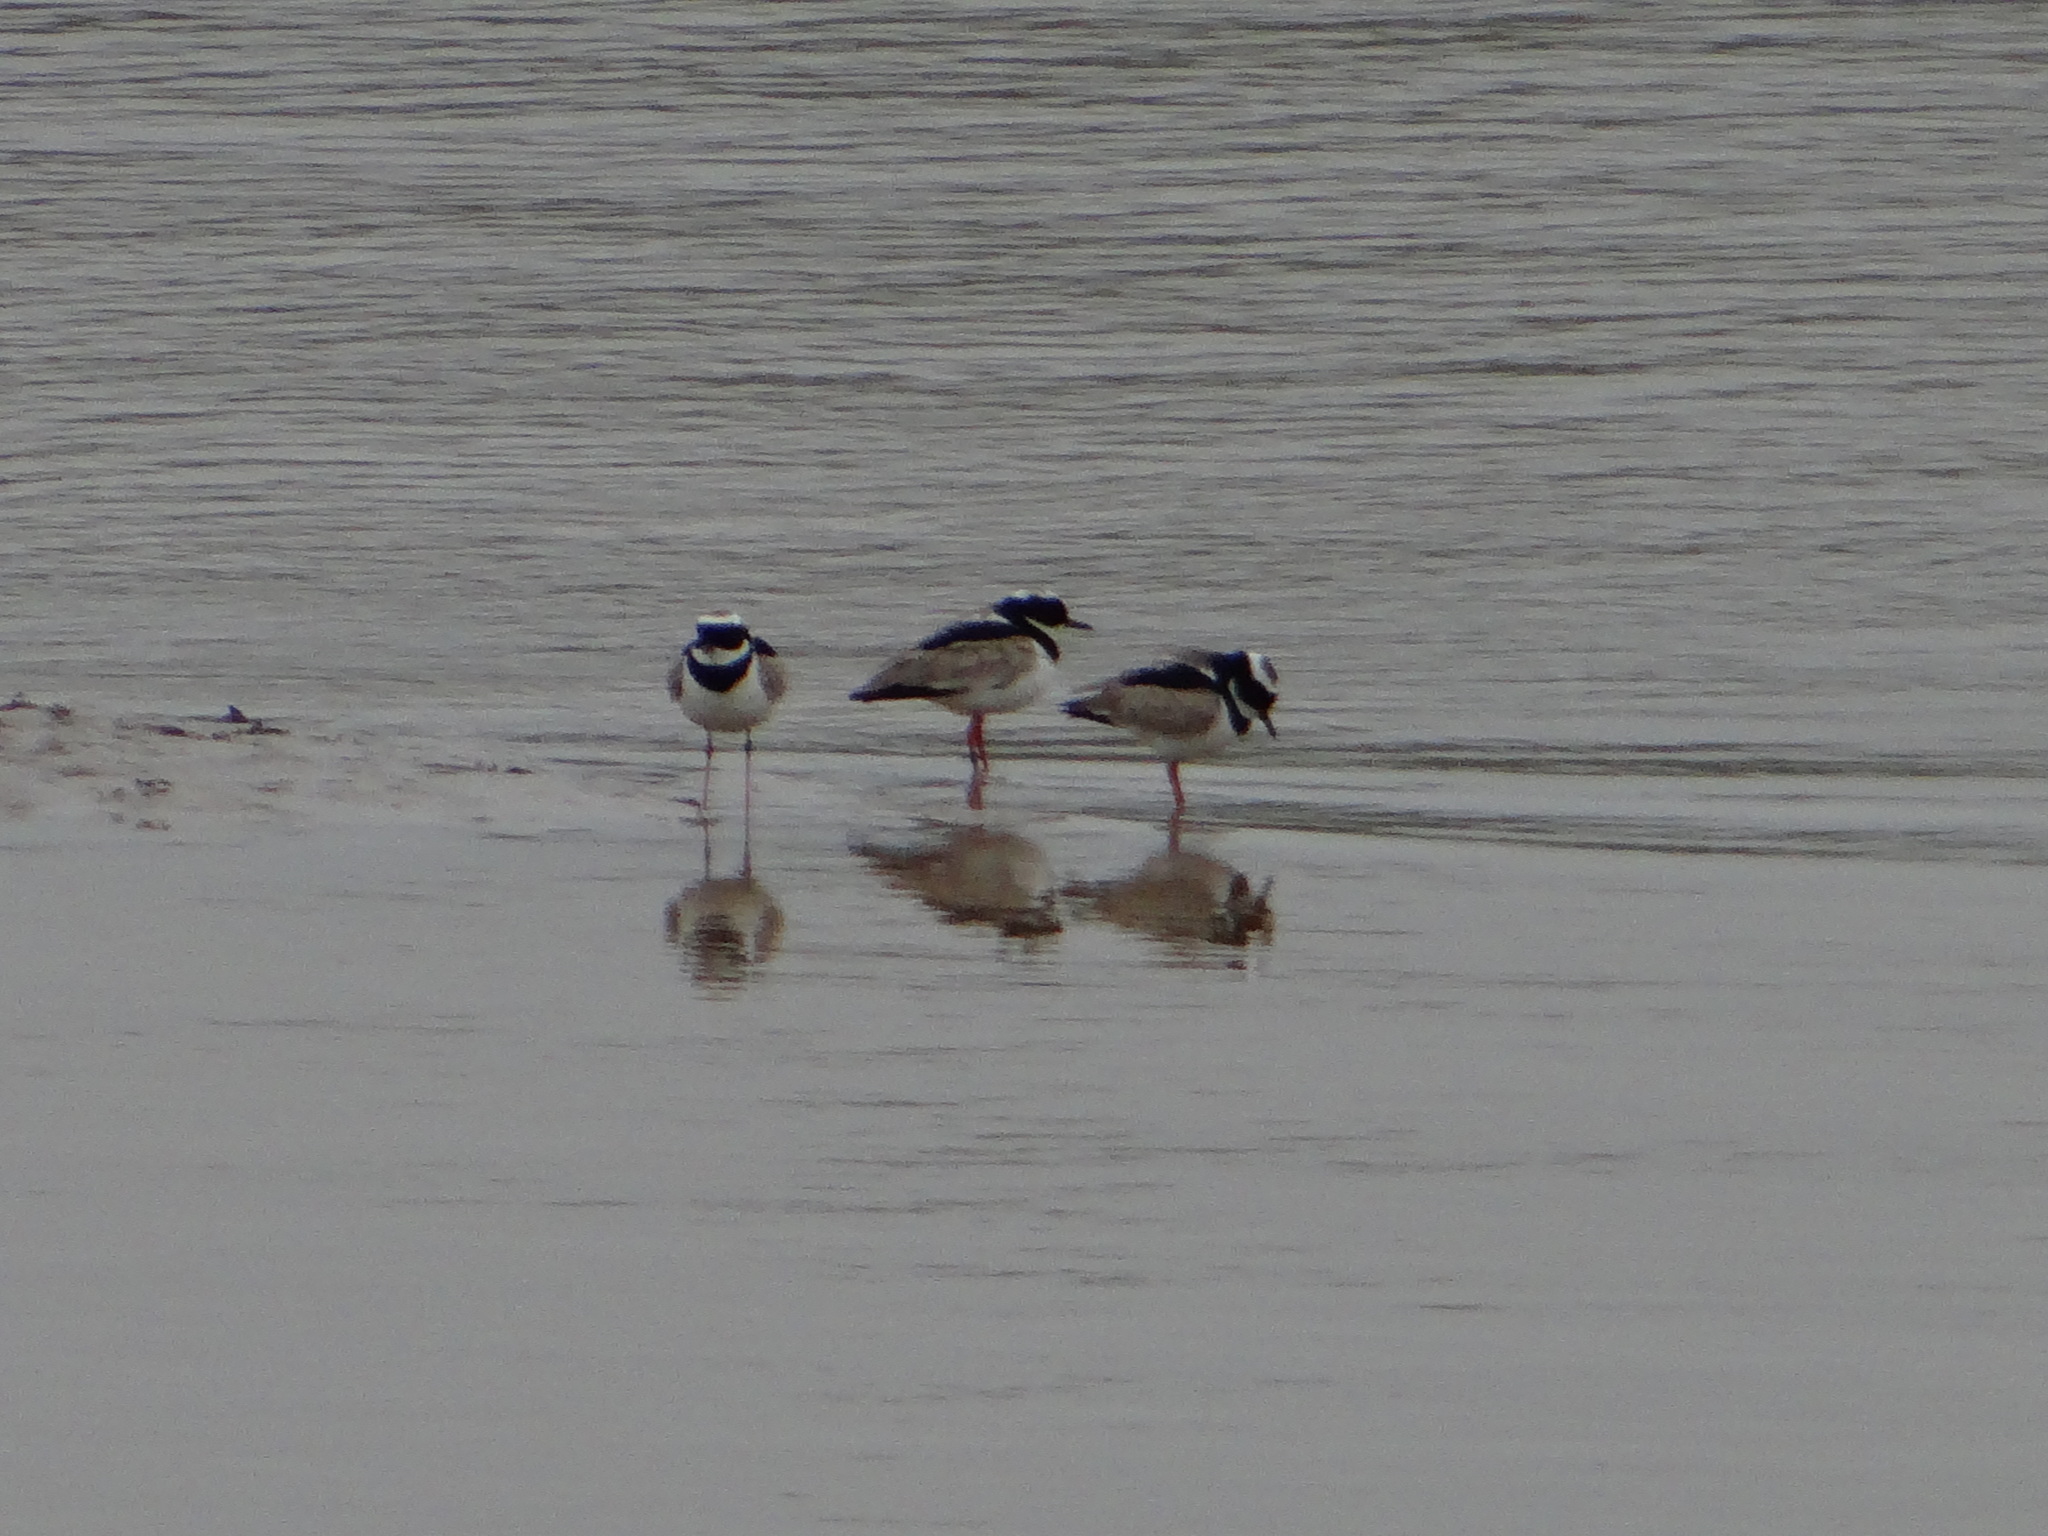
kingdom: Animalia
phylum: Chordata
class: Aves
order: Charadriiformes
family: Charadriidae
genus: Hoploxypterus
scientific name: Hoploxypterus cayanus
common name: Pied plover
